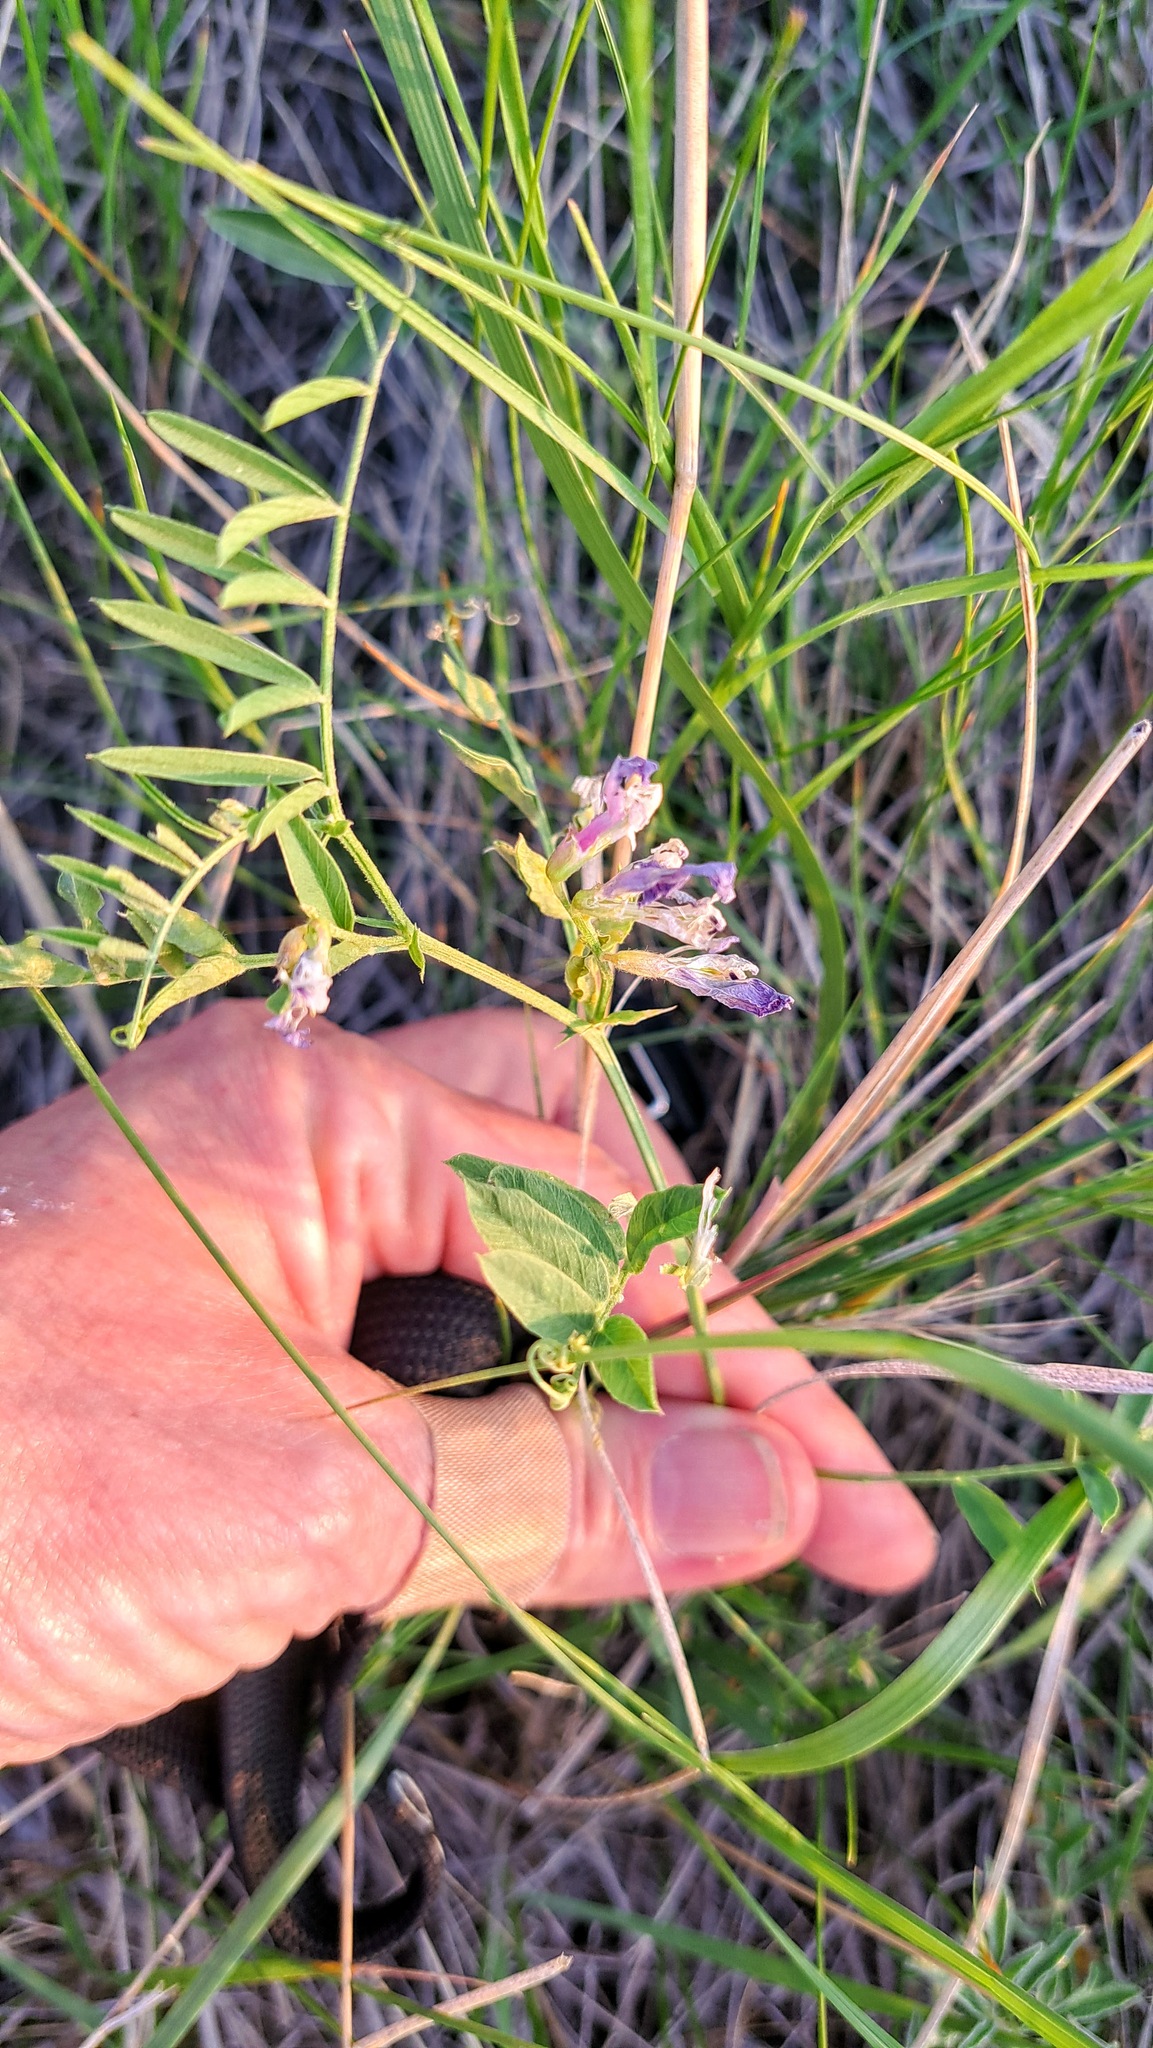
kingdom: Plantae
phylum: Tracheophyta
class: Magnoliopsida
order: Fabales
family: Fabaceae
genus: Vicia
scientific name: Vicia americana
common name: American vetch
